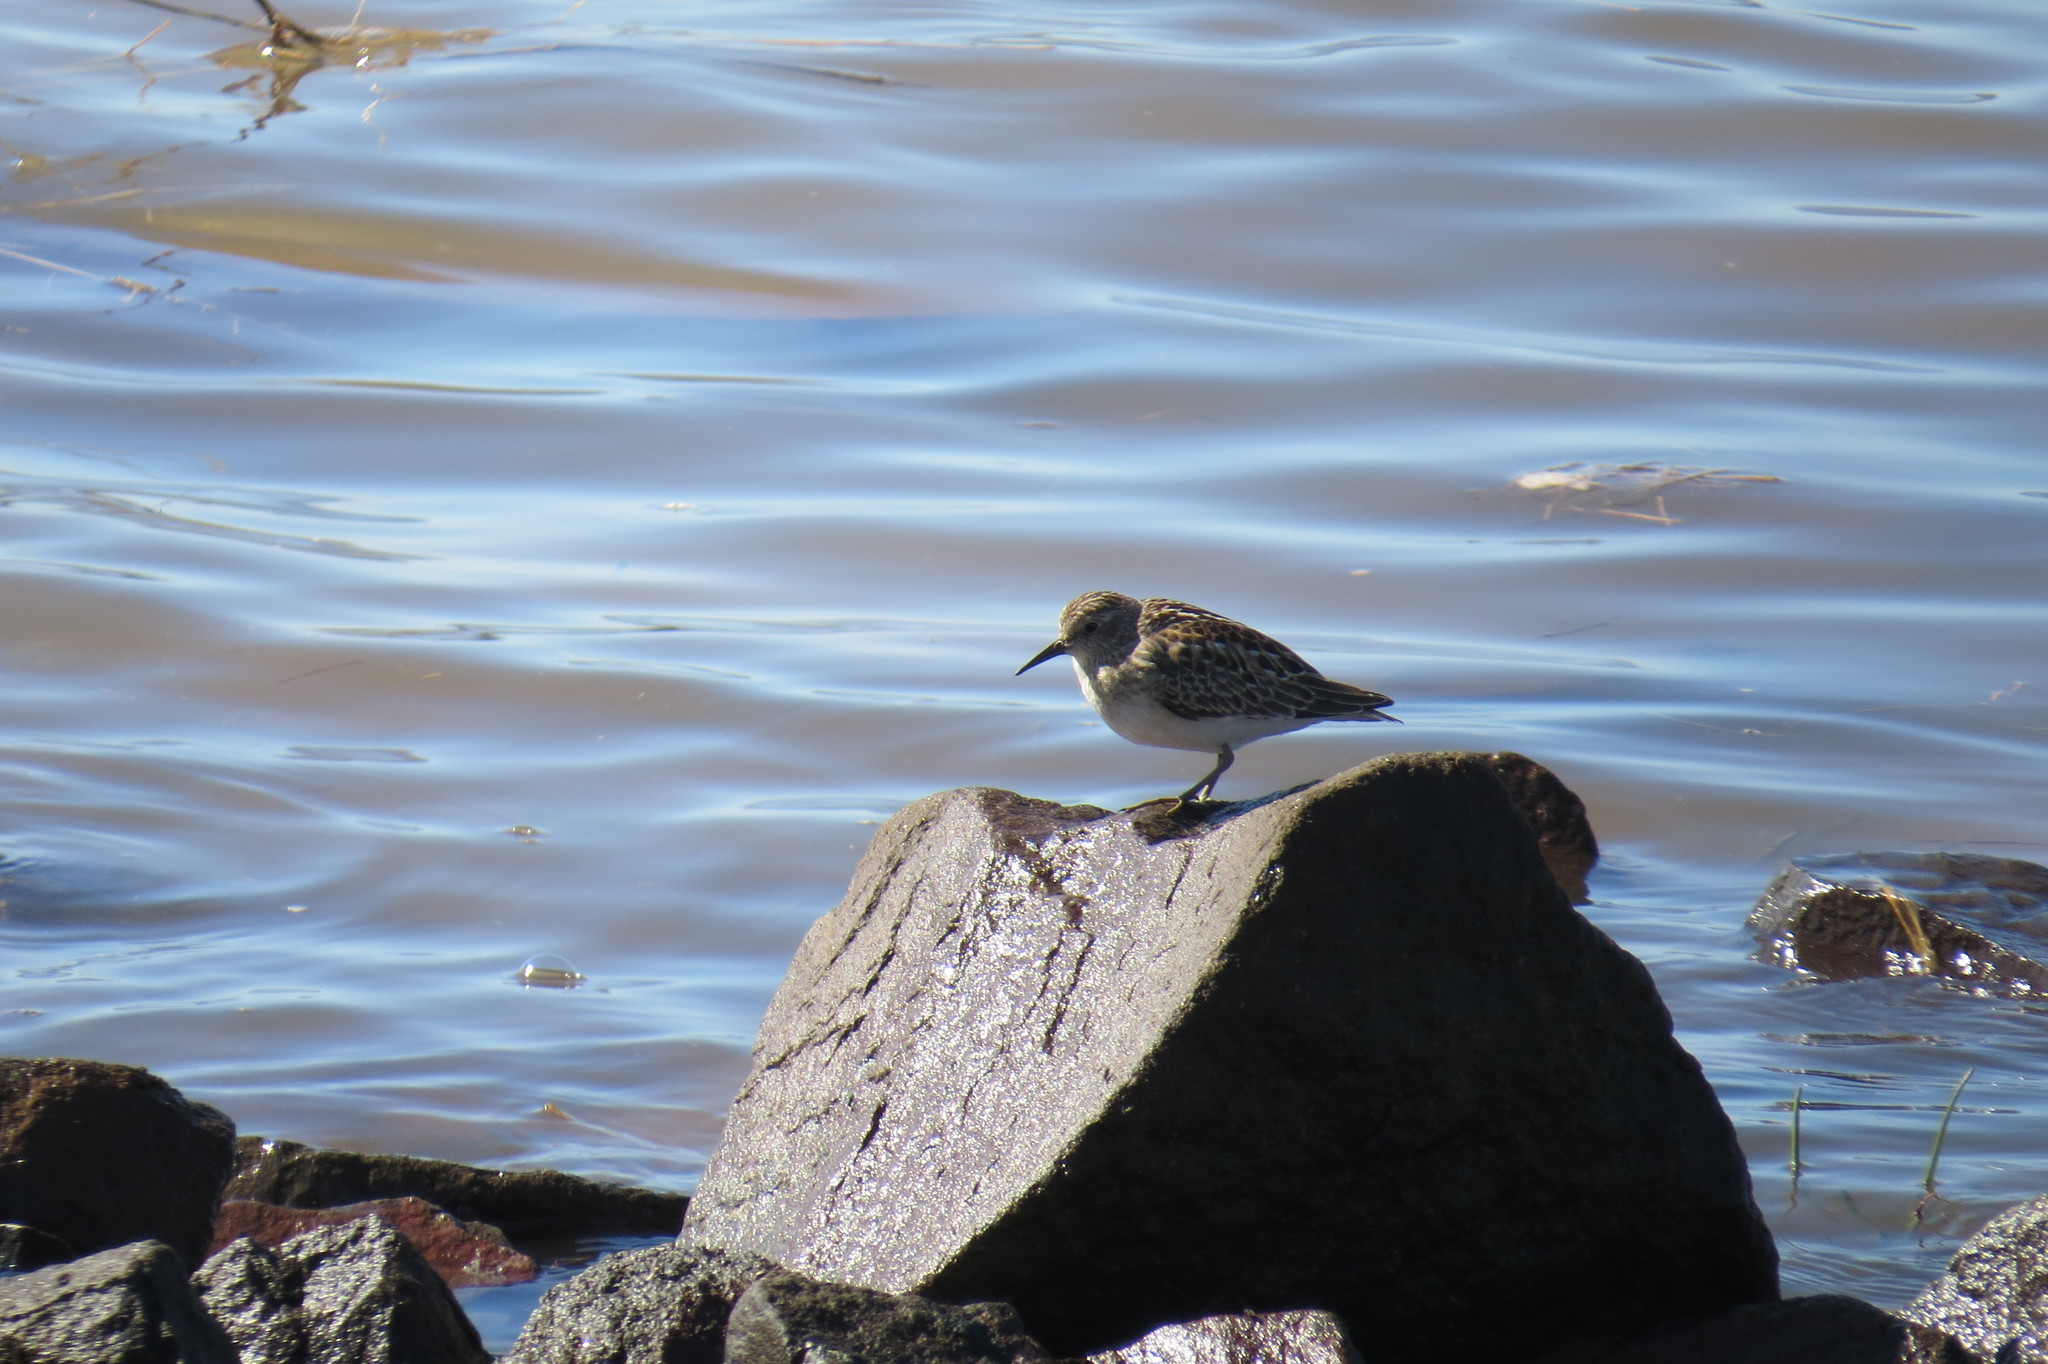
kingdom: Animalia
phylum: Chordata
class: Aves
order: Charadriiformes
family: Scolopacidae
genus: Calidris
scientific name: Calidris minutilla
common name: Least sandpiper
